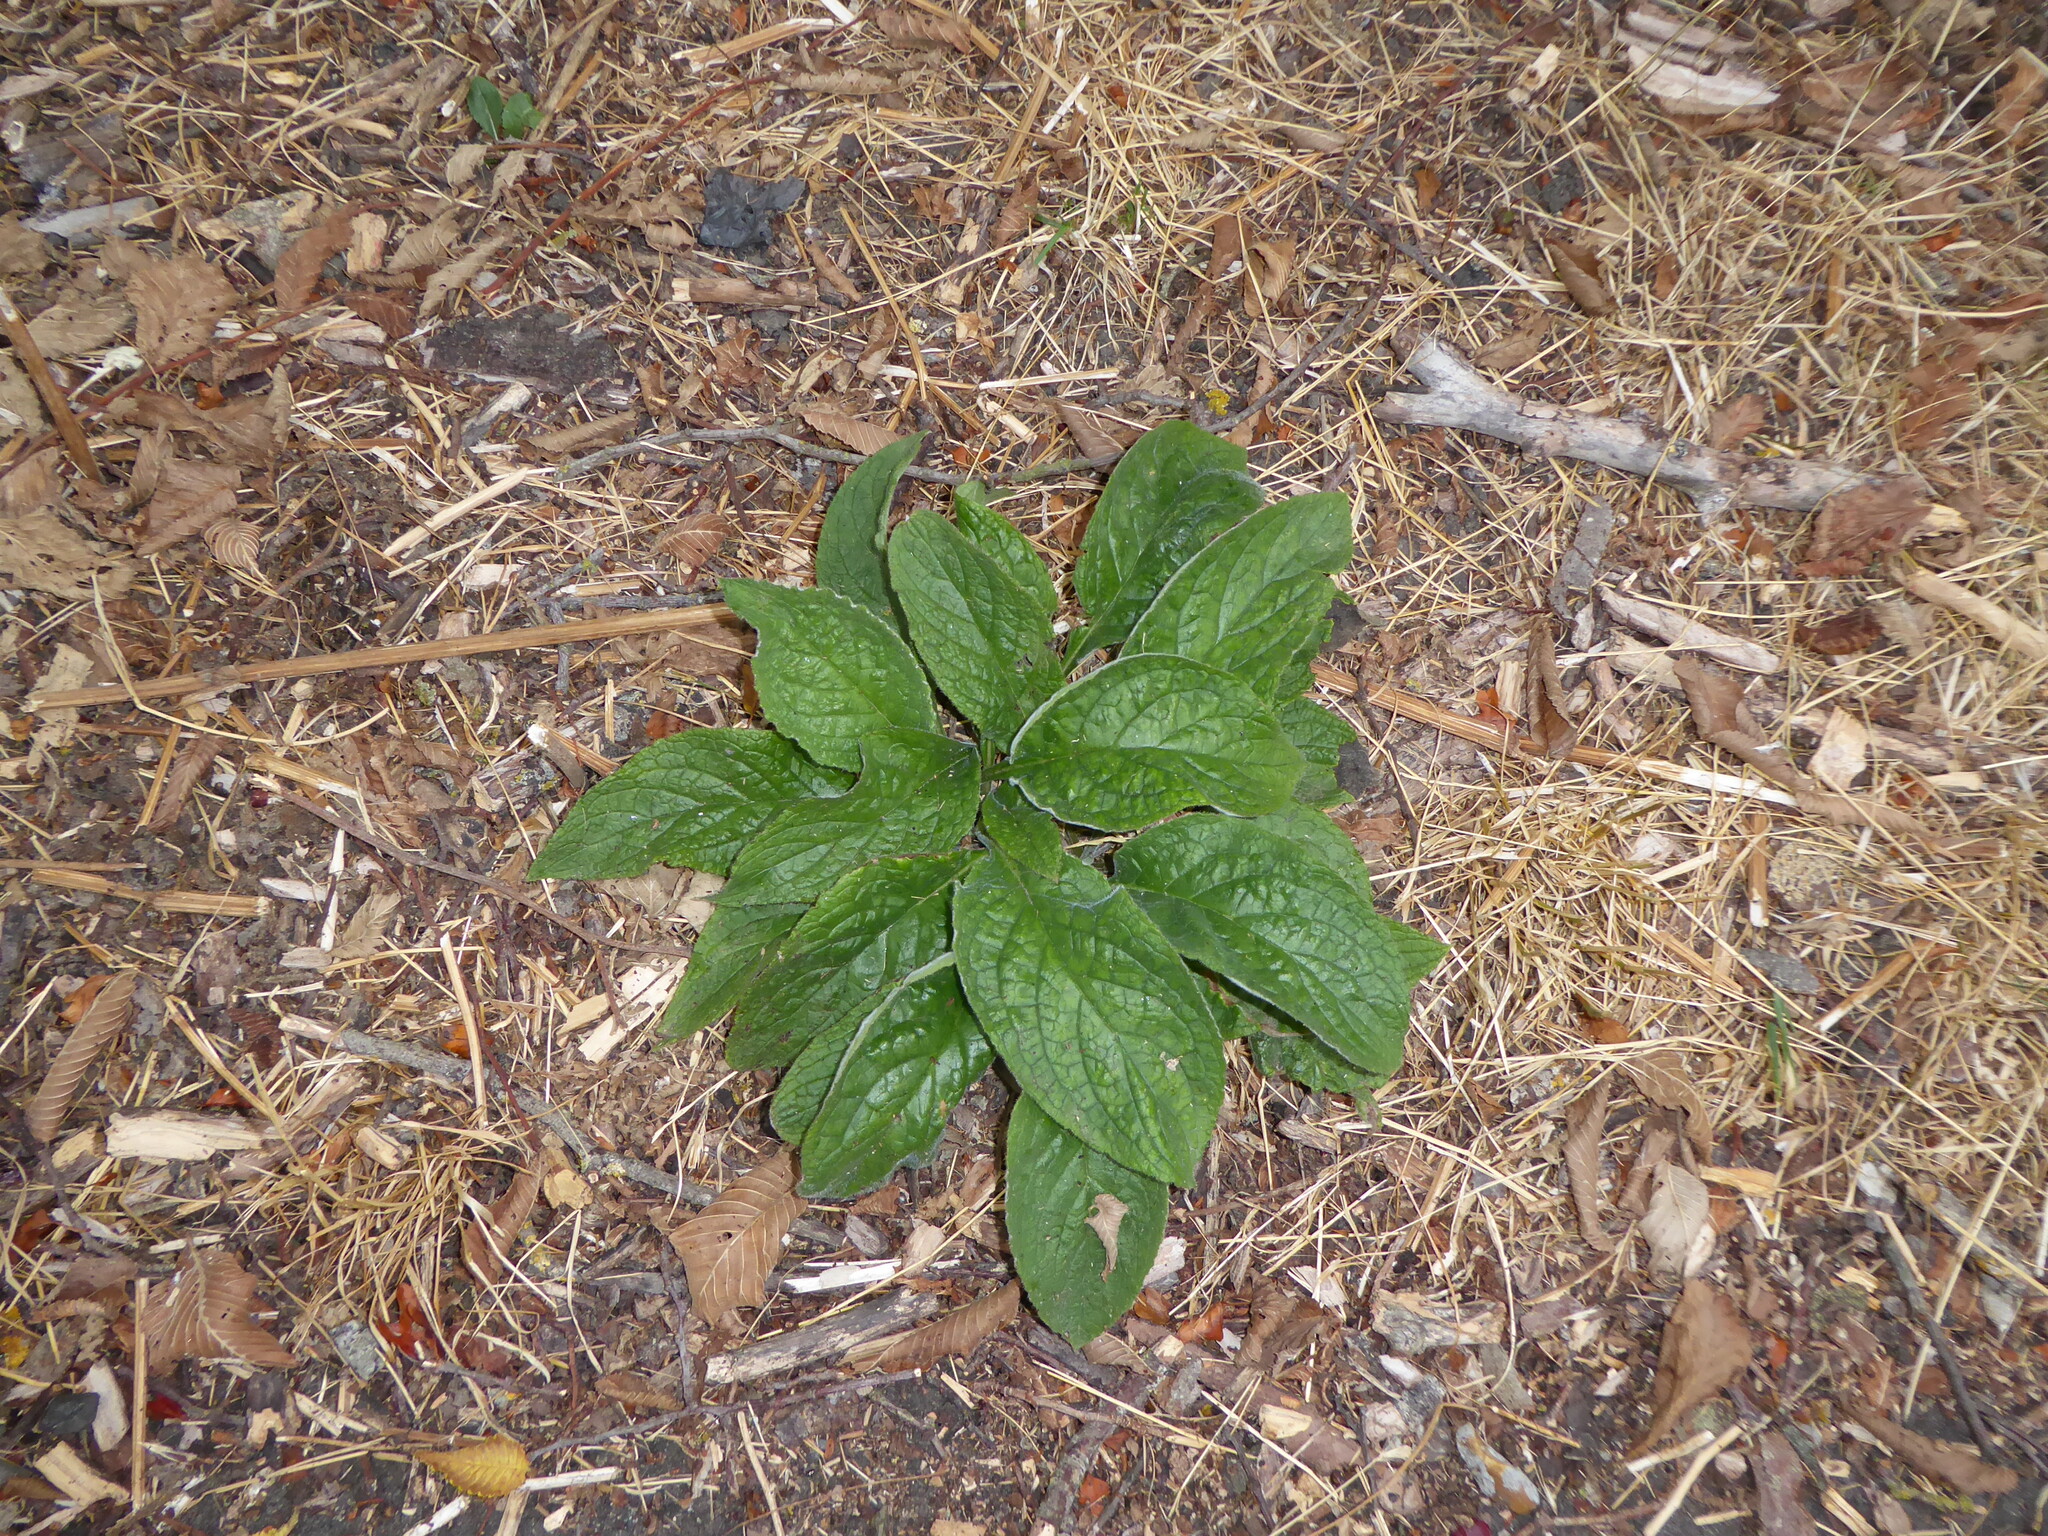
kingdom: Plantae
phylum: Tracheophyta
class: Magnoliopsida
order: Boraginales
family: Boraginaceae
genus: Pentaglottis
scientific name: Pentaglottis sempervirens
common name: Green alkanet
